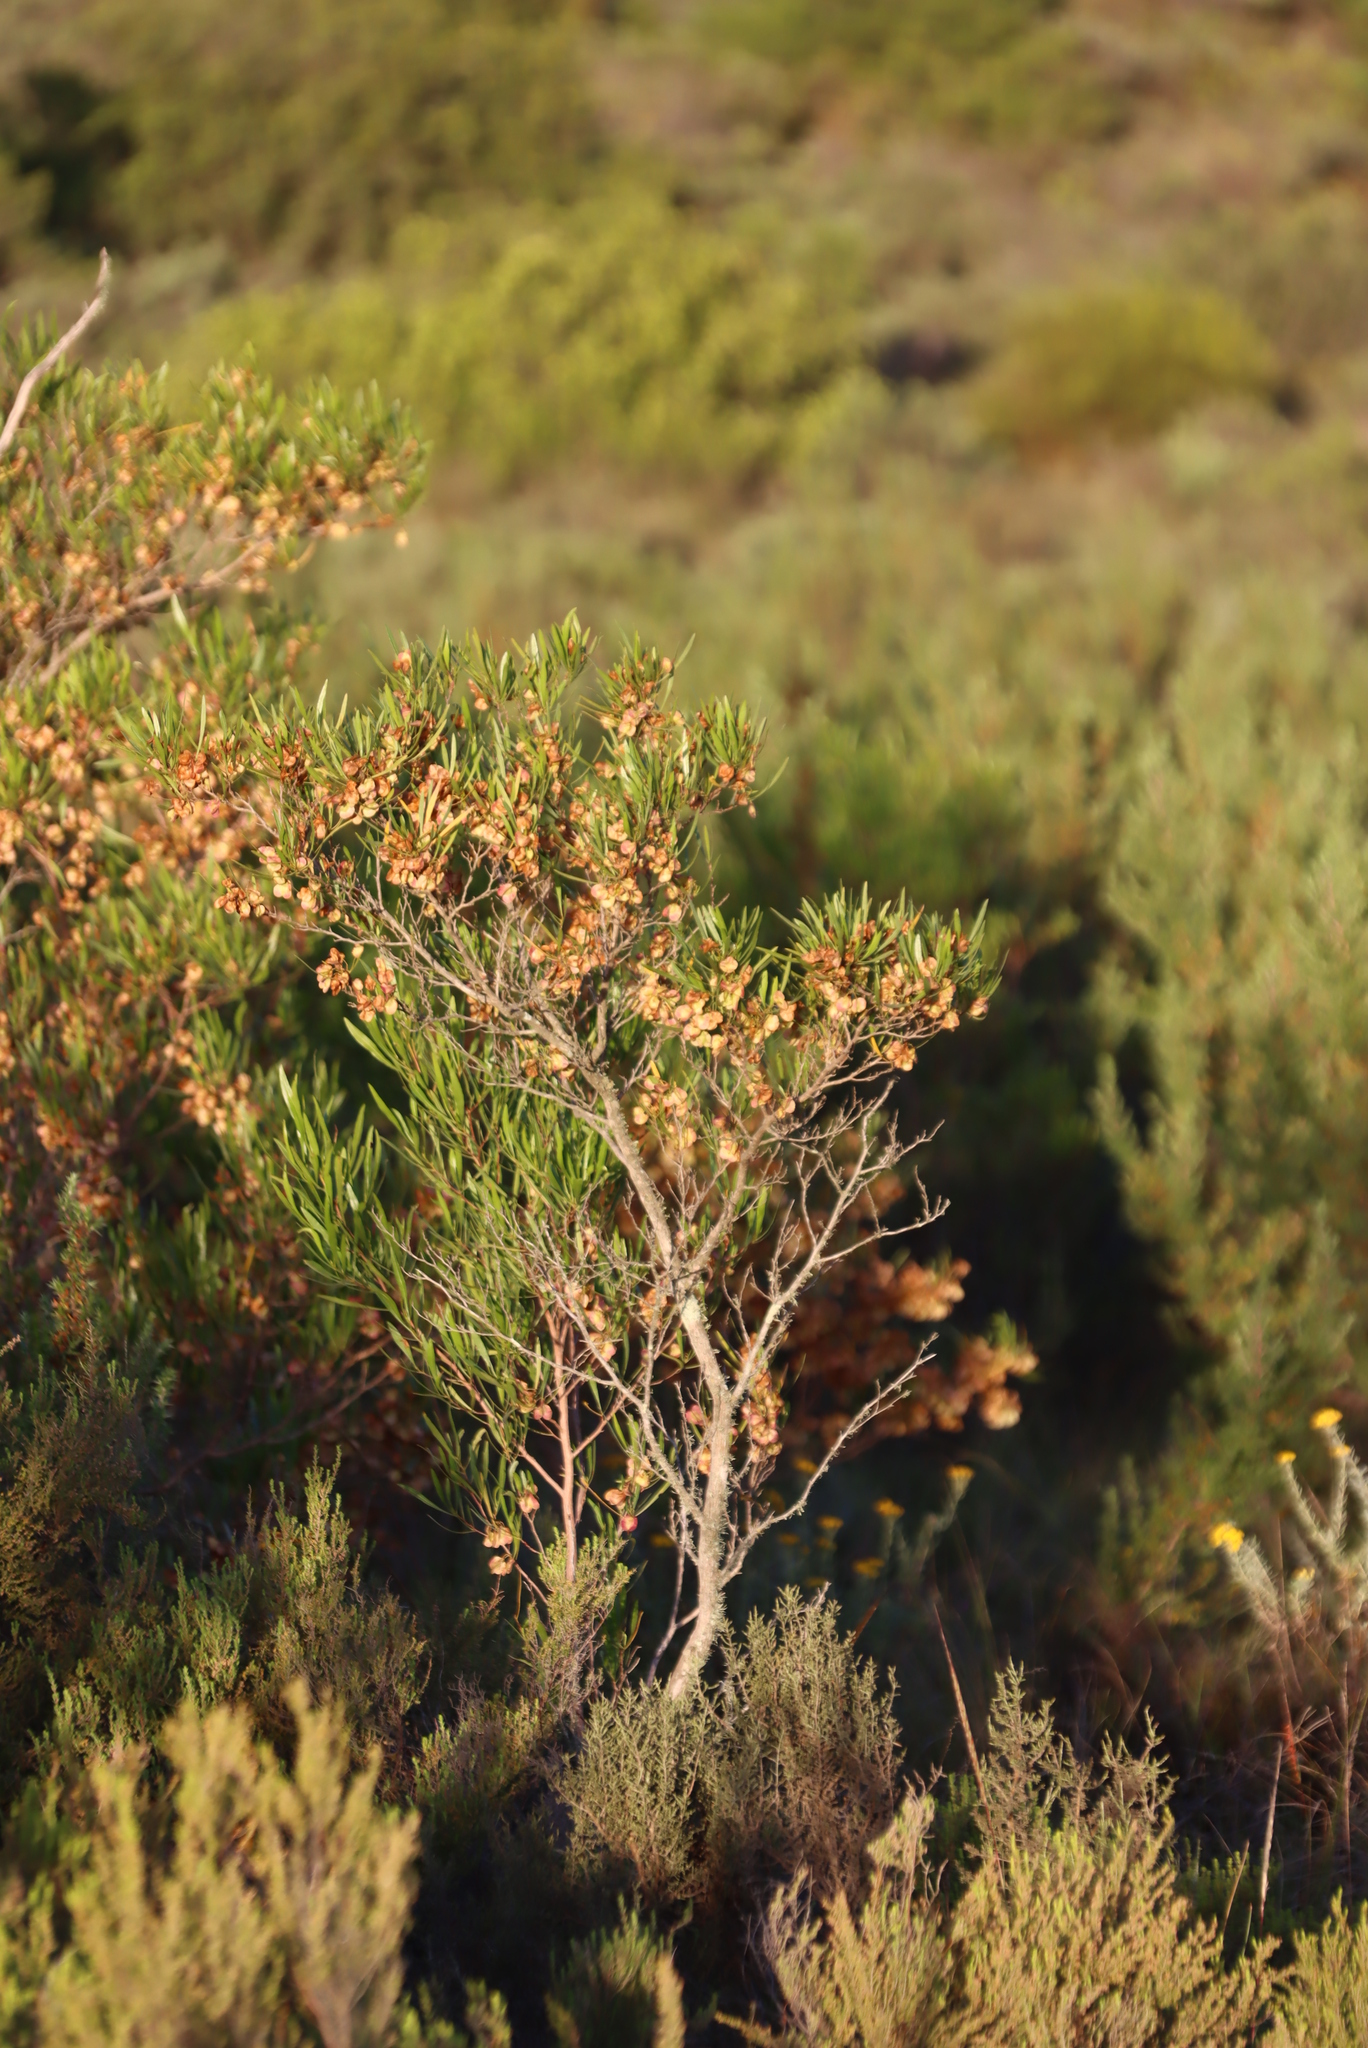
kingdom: Plantae
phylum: Tracheophyta
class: Magnoliopsida
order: Sapindales
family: Sapindaceae
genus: Dodonaea
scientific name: Dodonaea viscosa
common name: Hopbush
